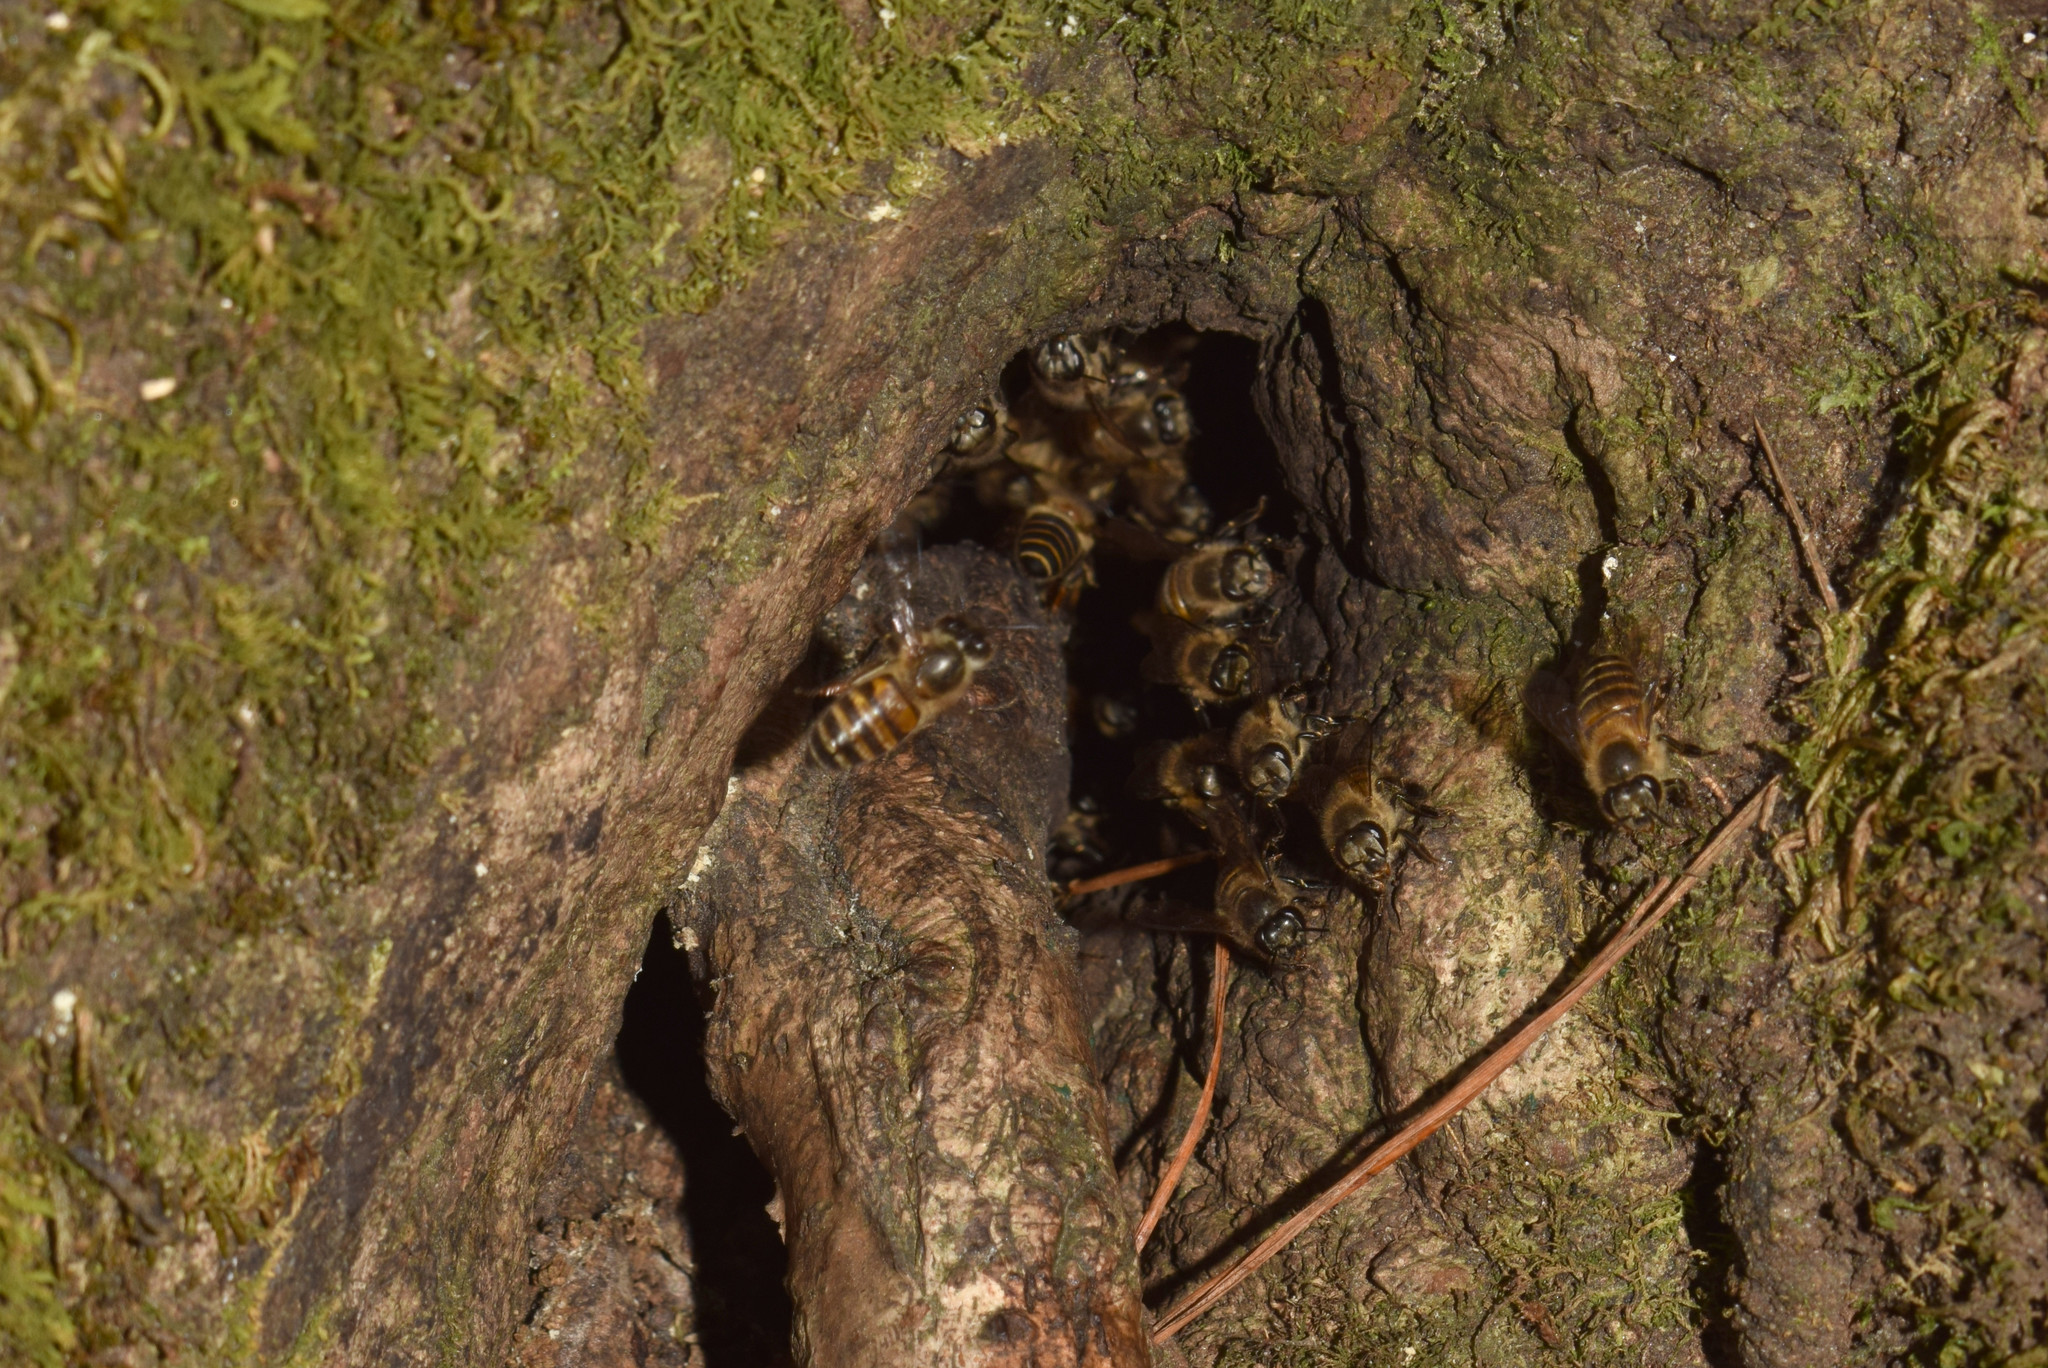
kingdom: Animalia
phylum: Arthropoda
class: Insecta
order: Hymenoptera
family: Apidae
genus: Apis
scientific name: Apis cerana
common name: Honey bee
